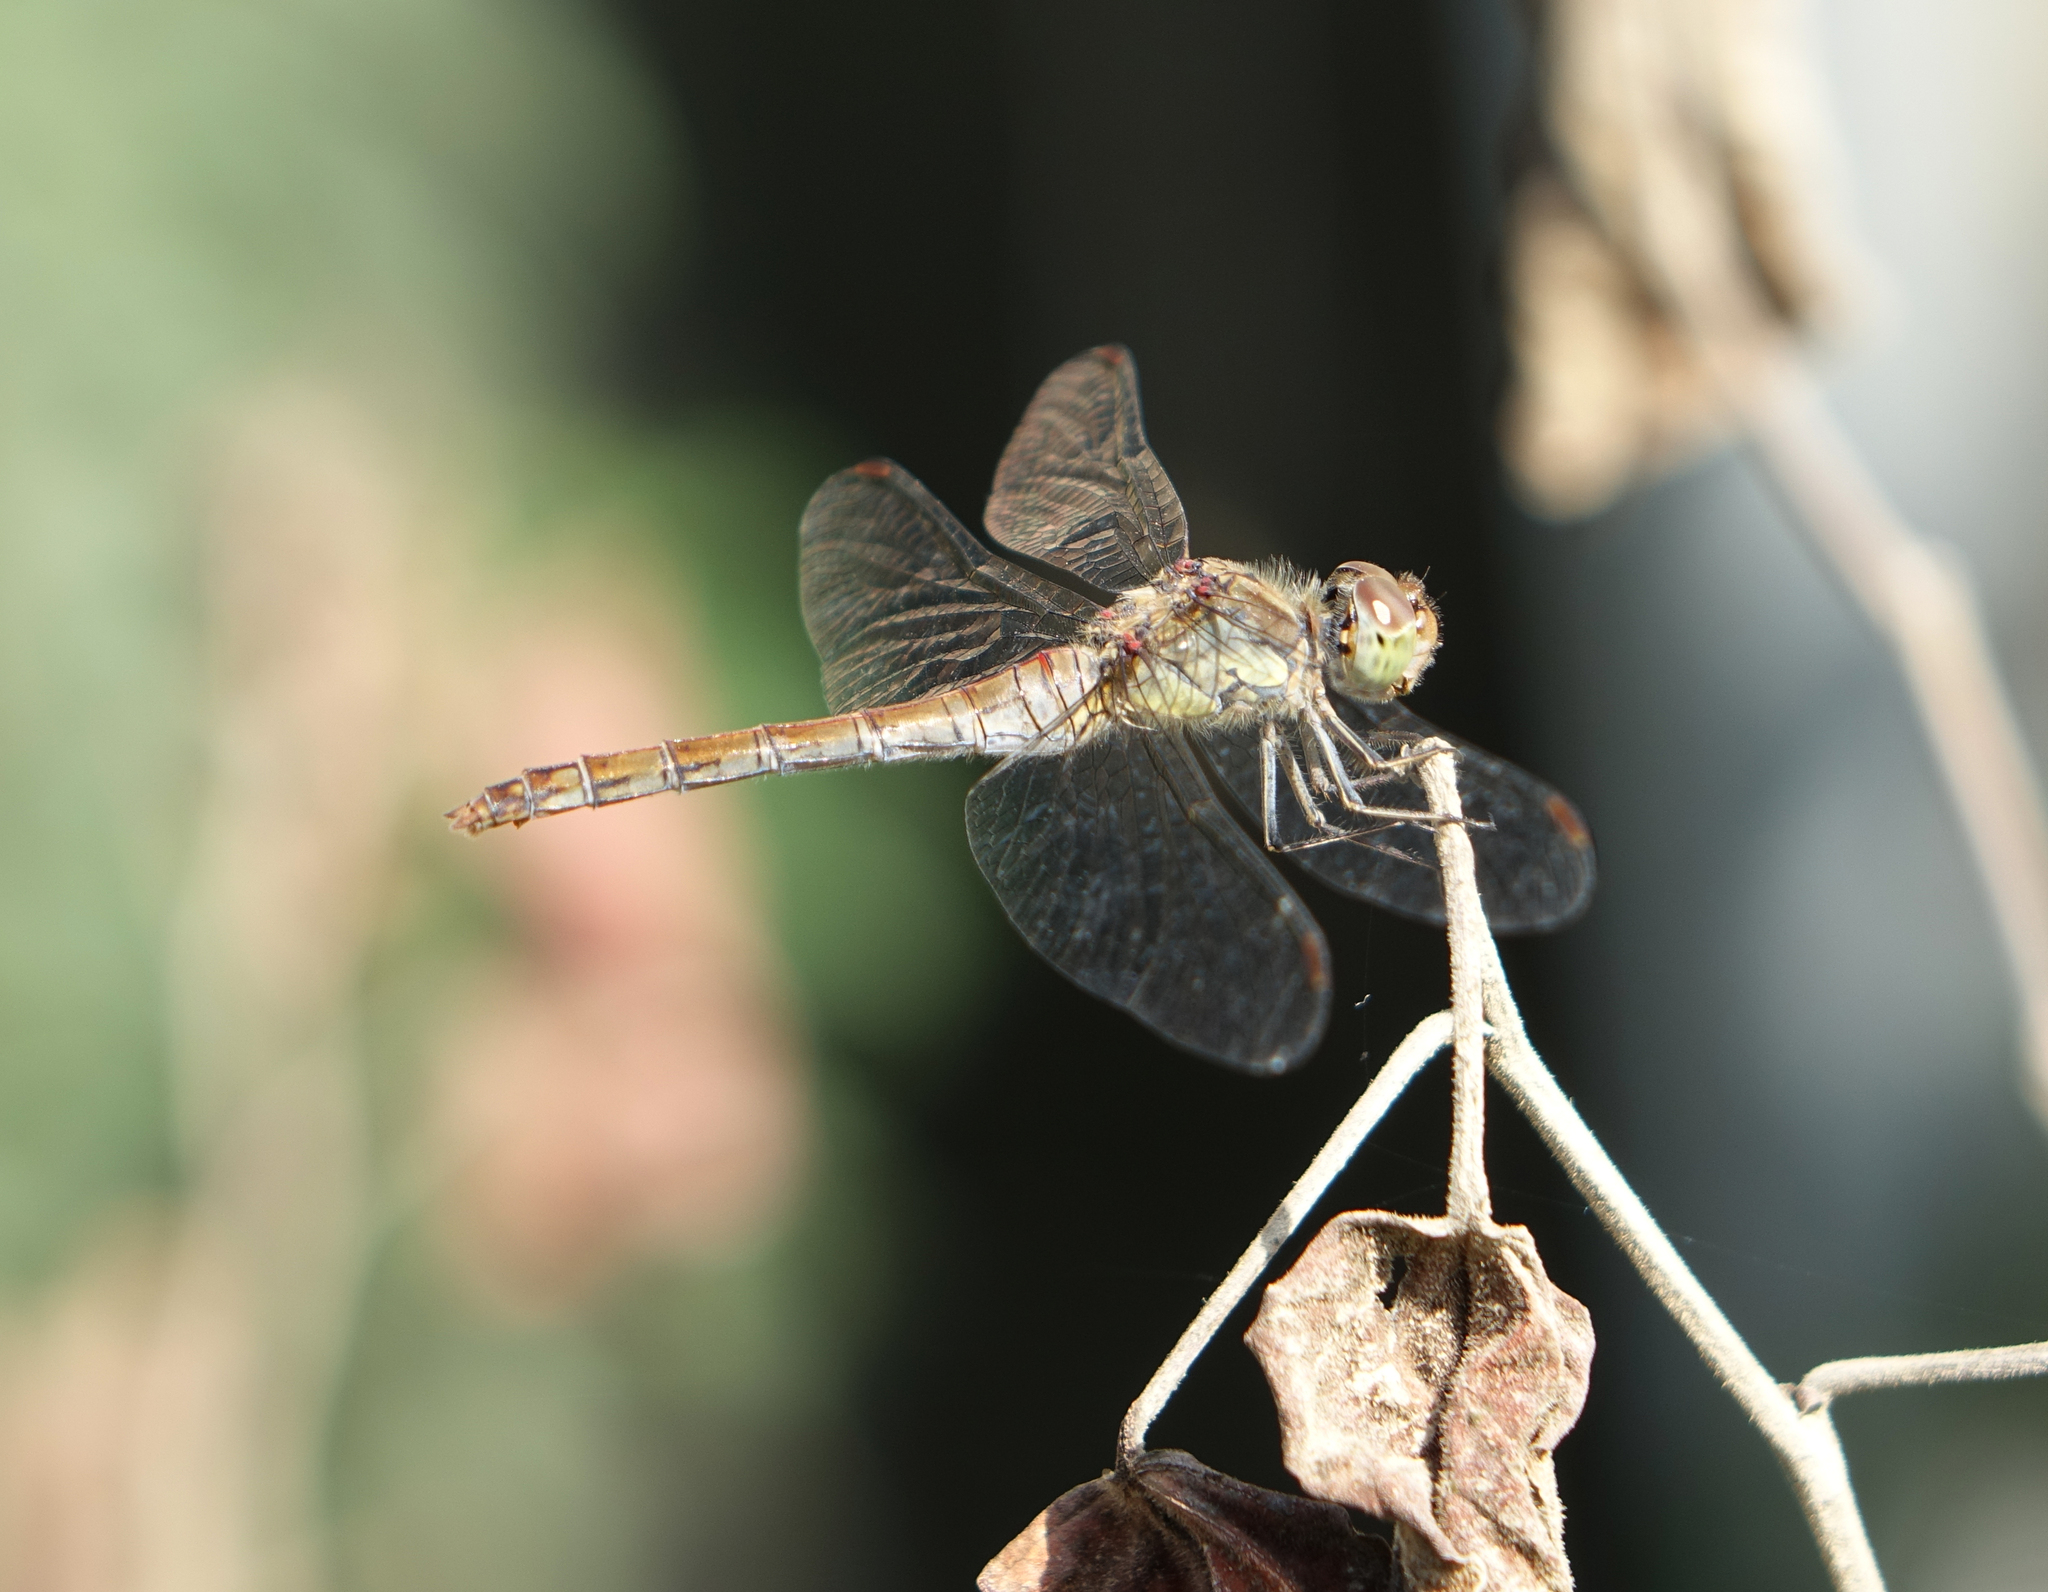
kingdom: Animalia
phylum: Arthropoda
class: Insecta
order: Odonata
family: Libellulidae
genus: Sympetrum
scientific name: Sympetrum striolatum
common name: Common darter
